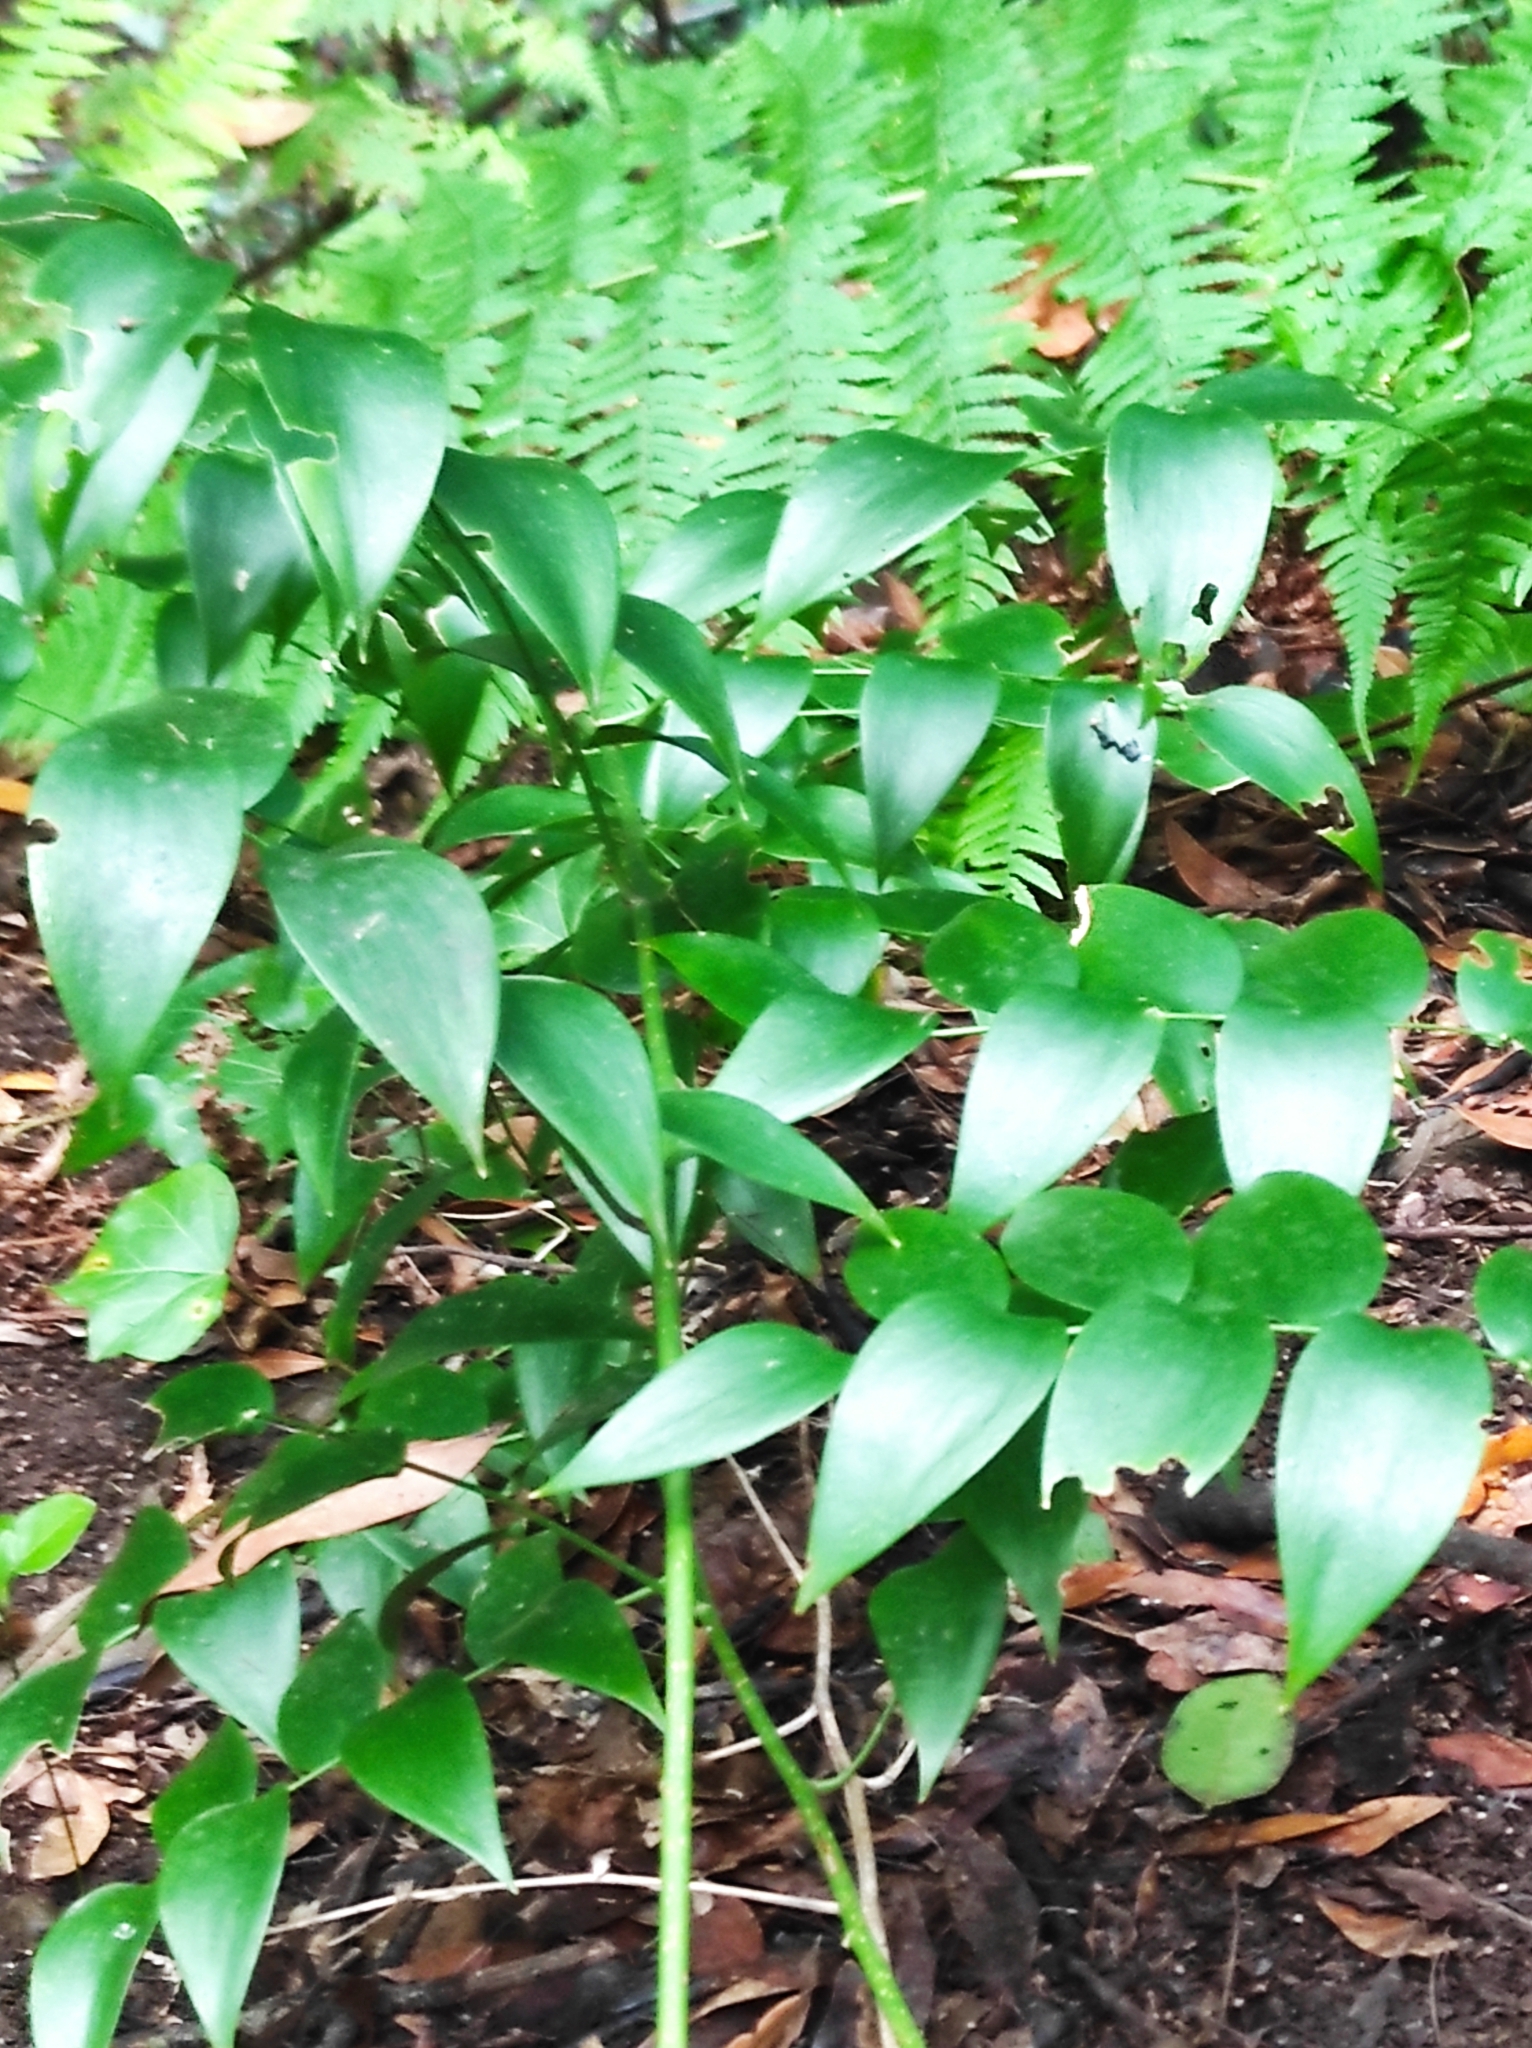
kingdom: Plantae
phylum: Tracheophyta
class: Liliopsida
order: Asparagales
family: Asparagaceae
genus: Semele
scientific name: Semele androgyna
